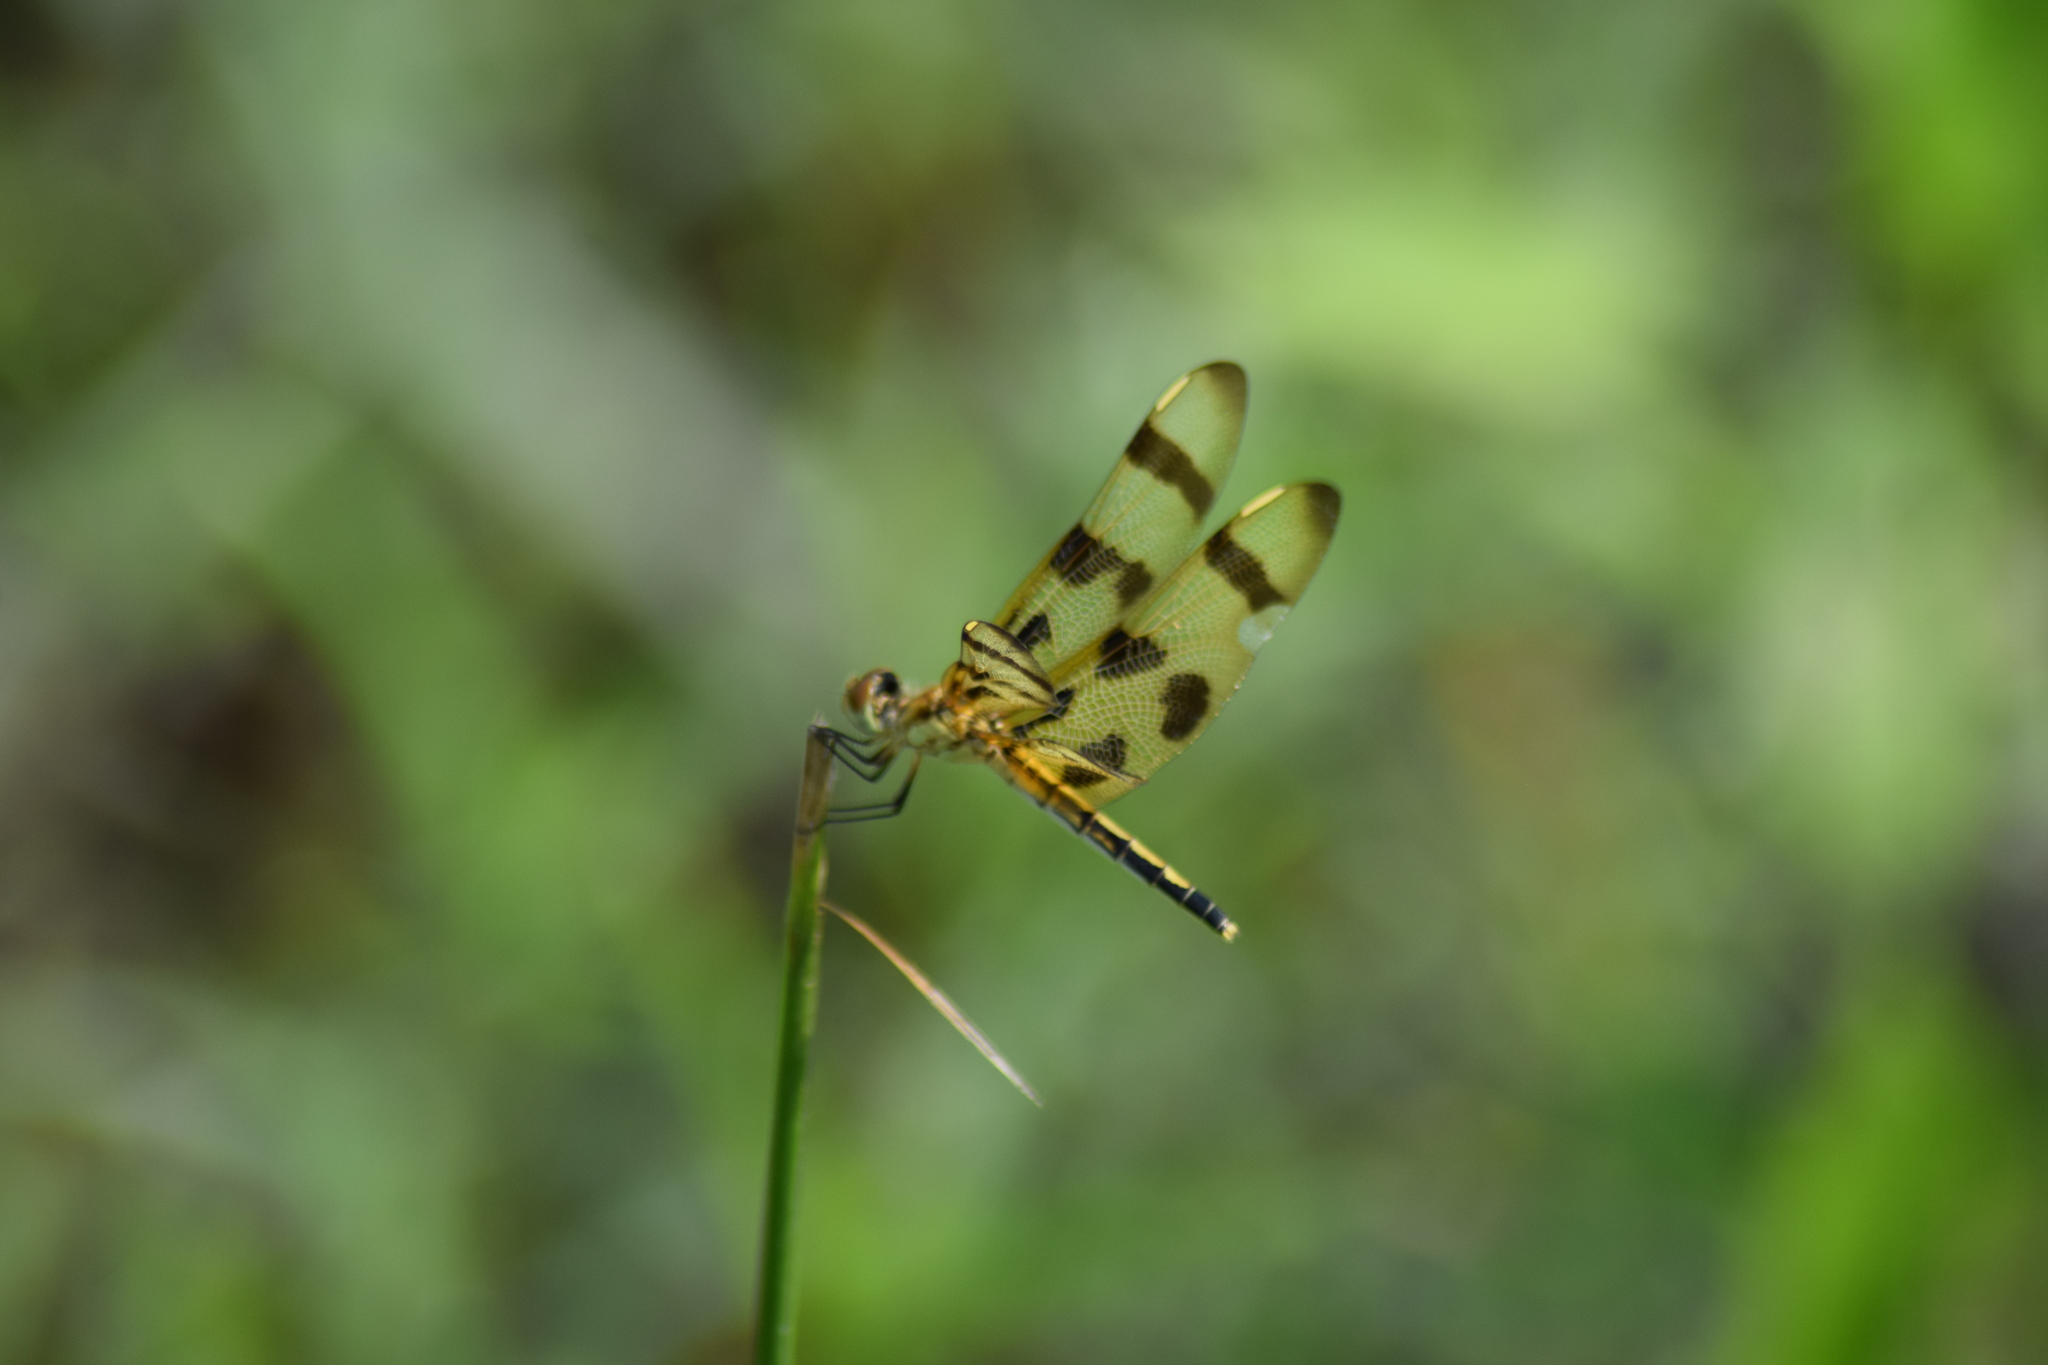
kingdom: Animalia
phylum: Arthropoda
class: Insecta
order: Odonata
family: Libellulidae
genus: Celithemis
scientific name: Celithemis eponina
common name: Halloween pennant
